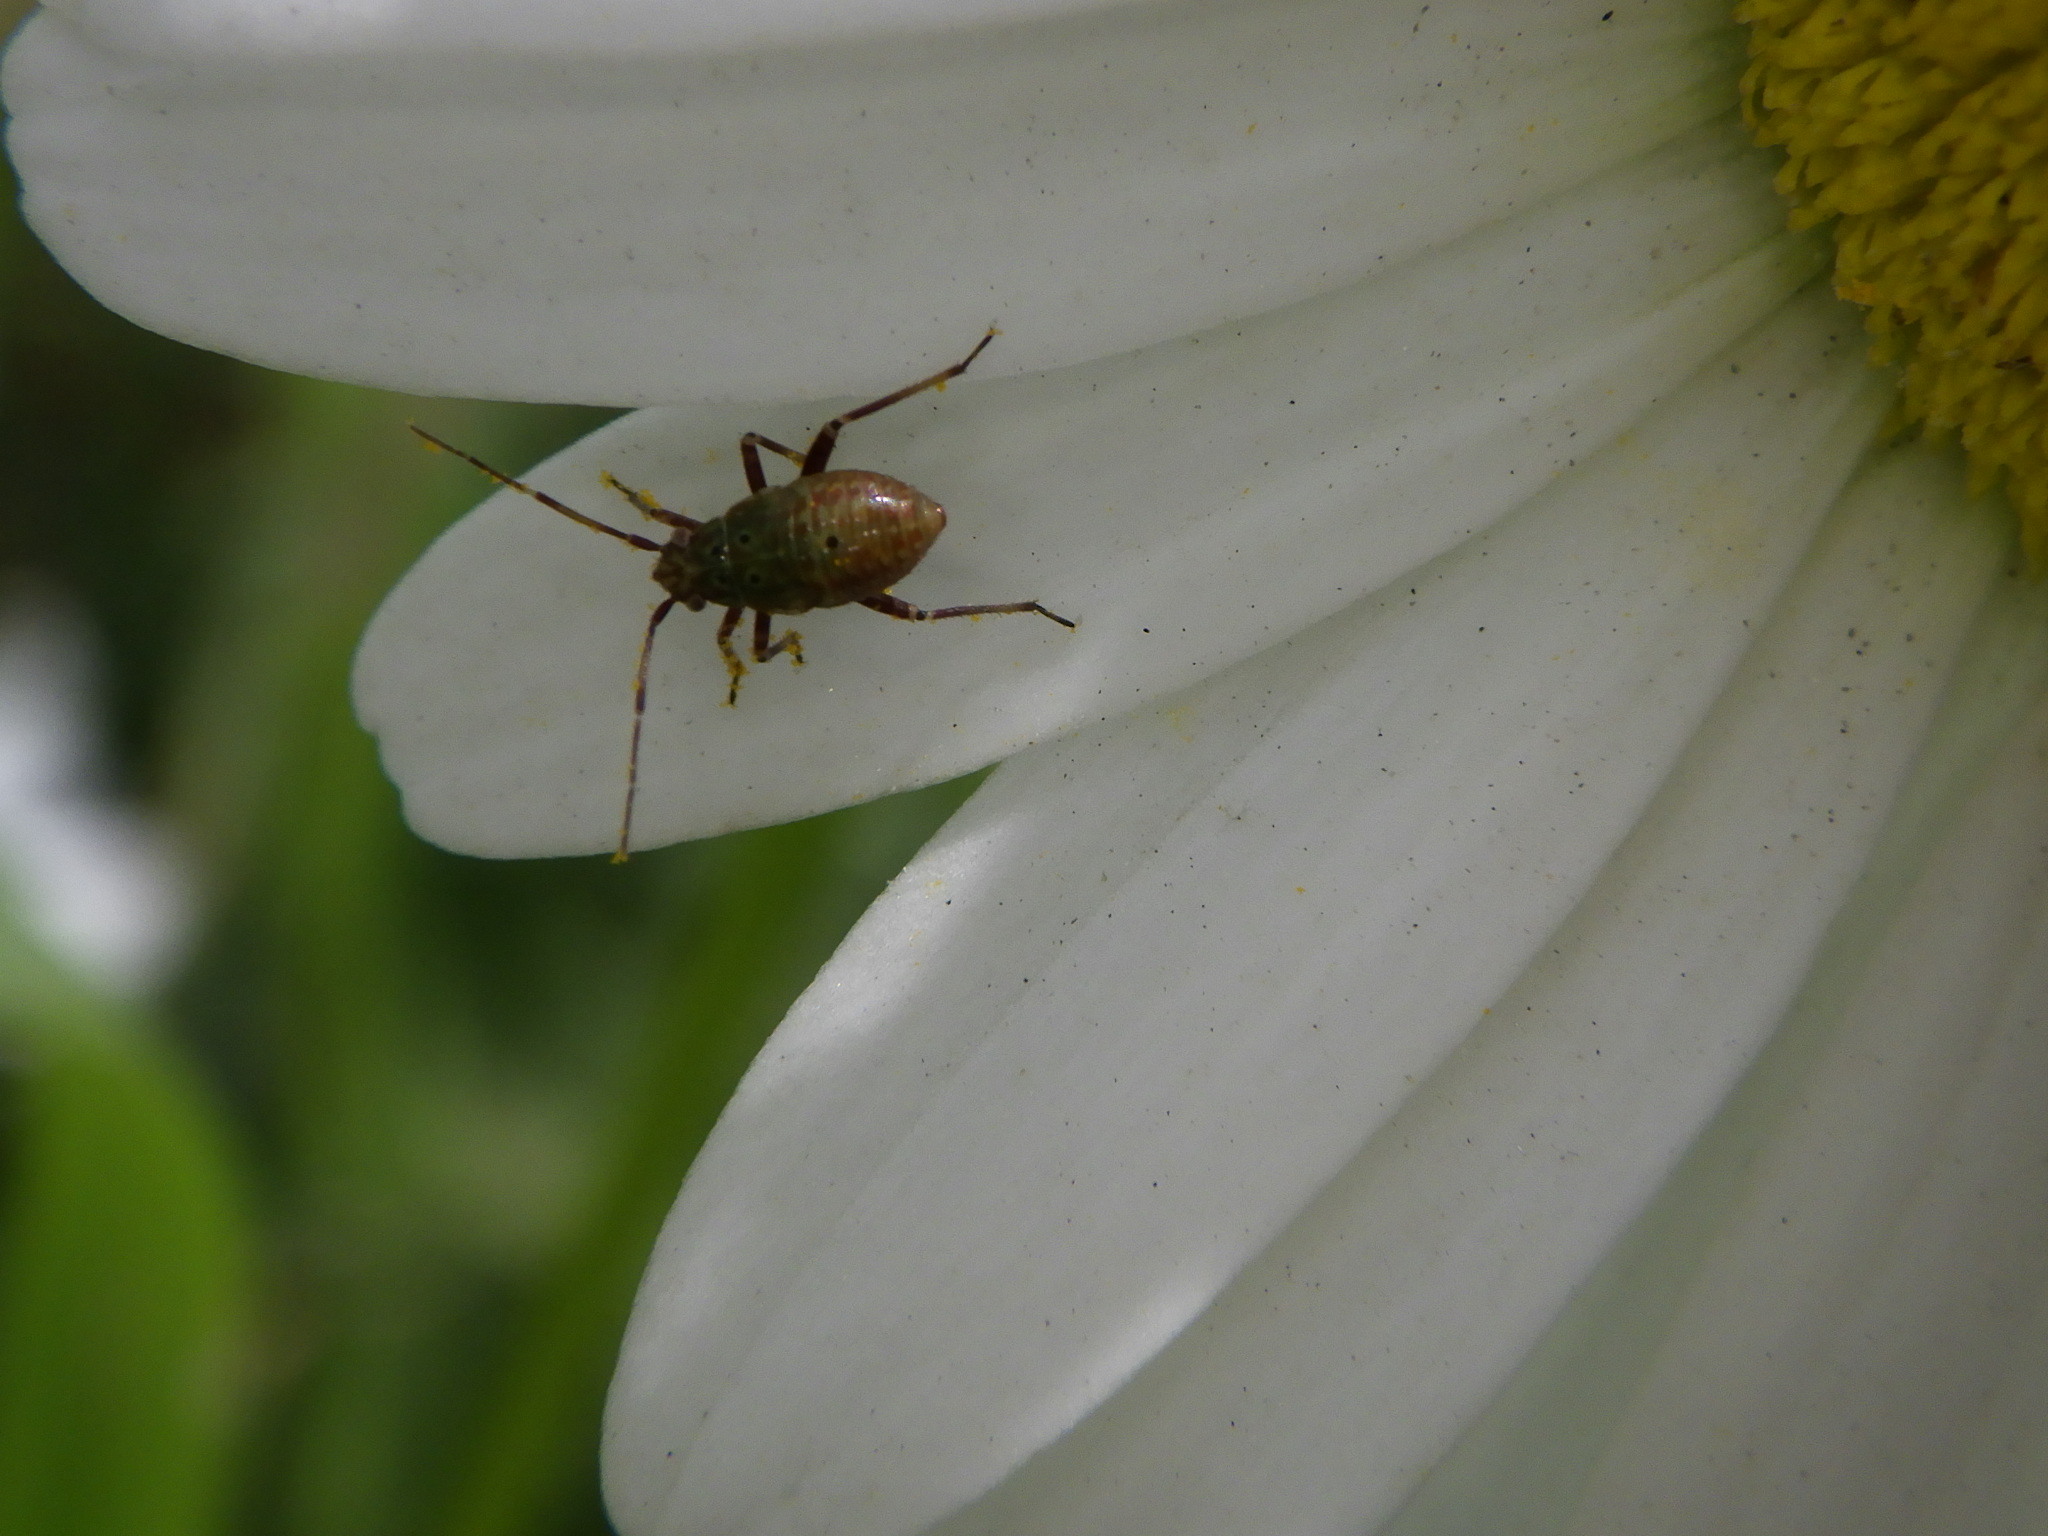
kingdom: Animalia
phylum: Arthropoda
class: Insecta
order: Hemiptera
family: Miridae
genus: Lygus
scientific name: Lygus
